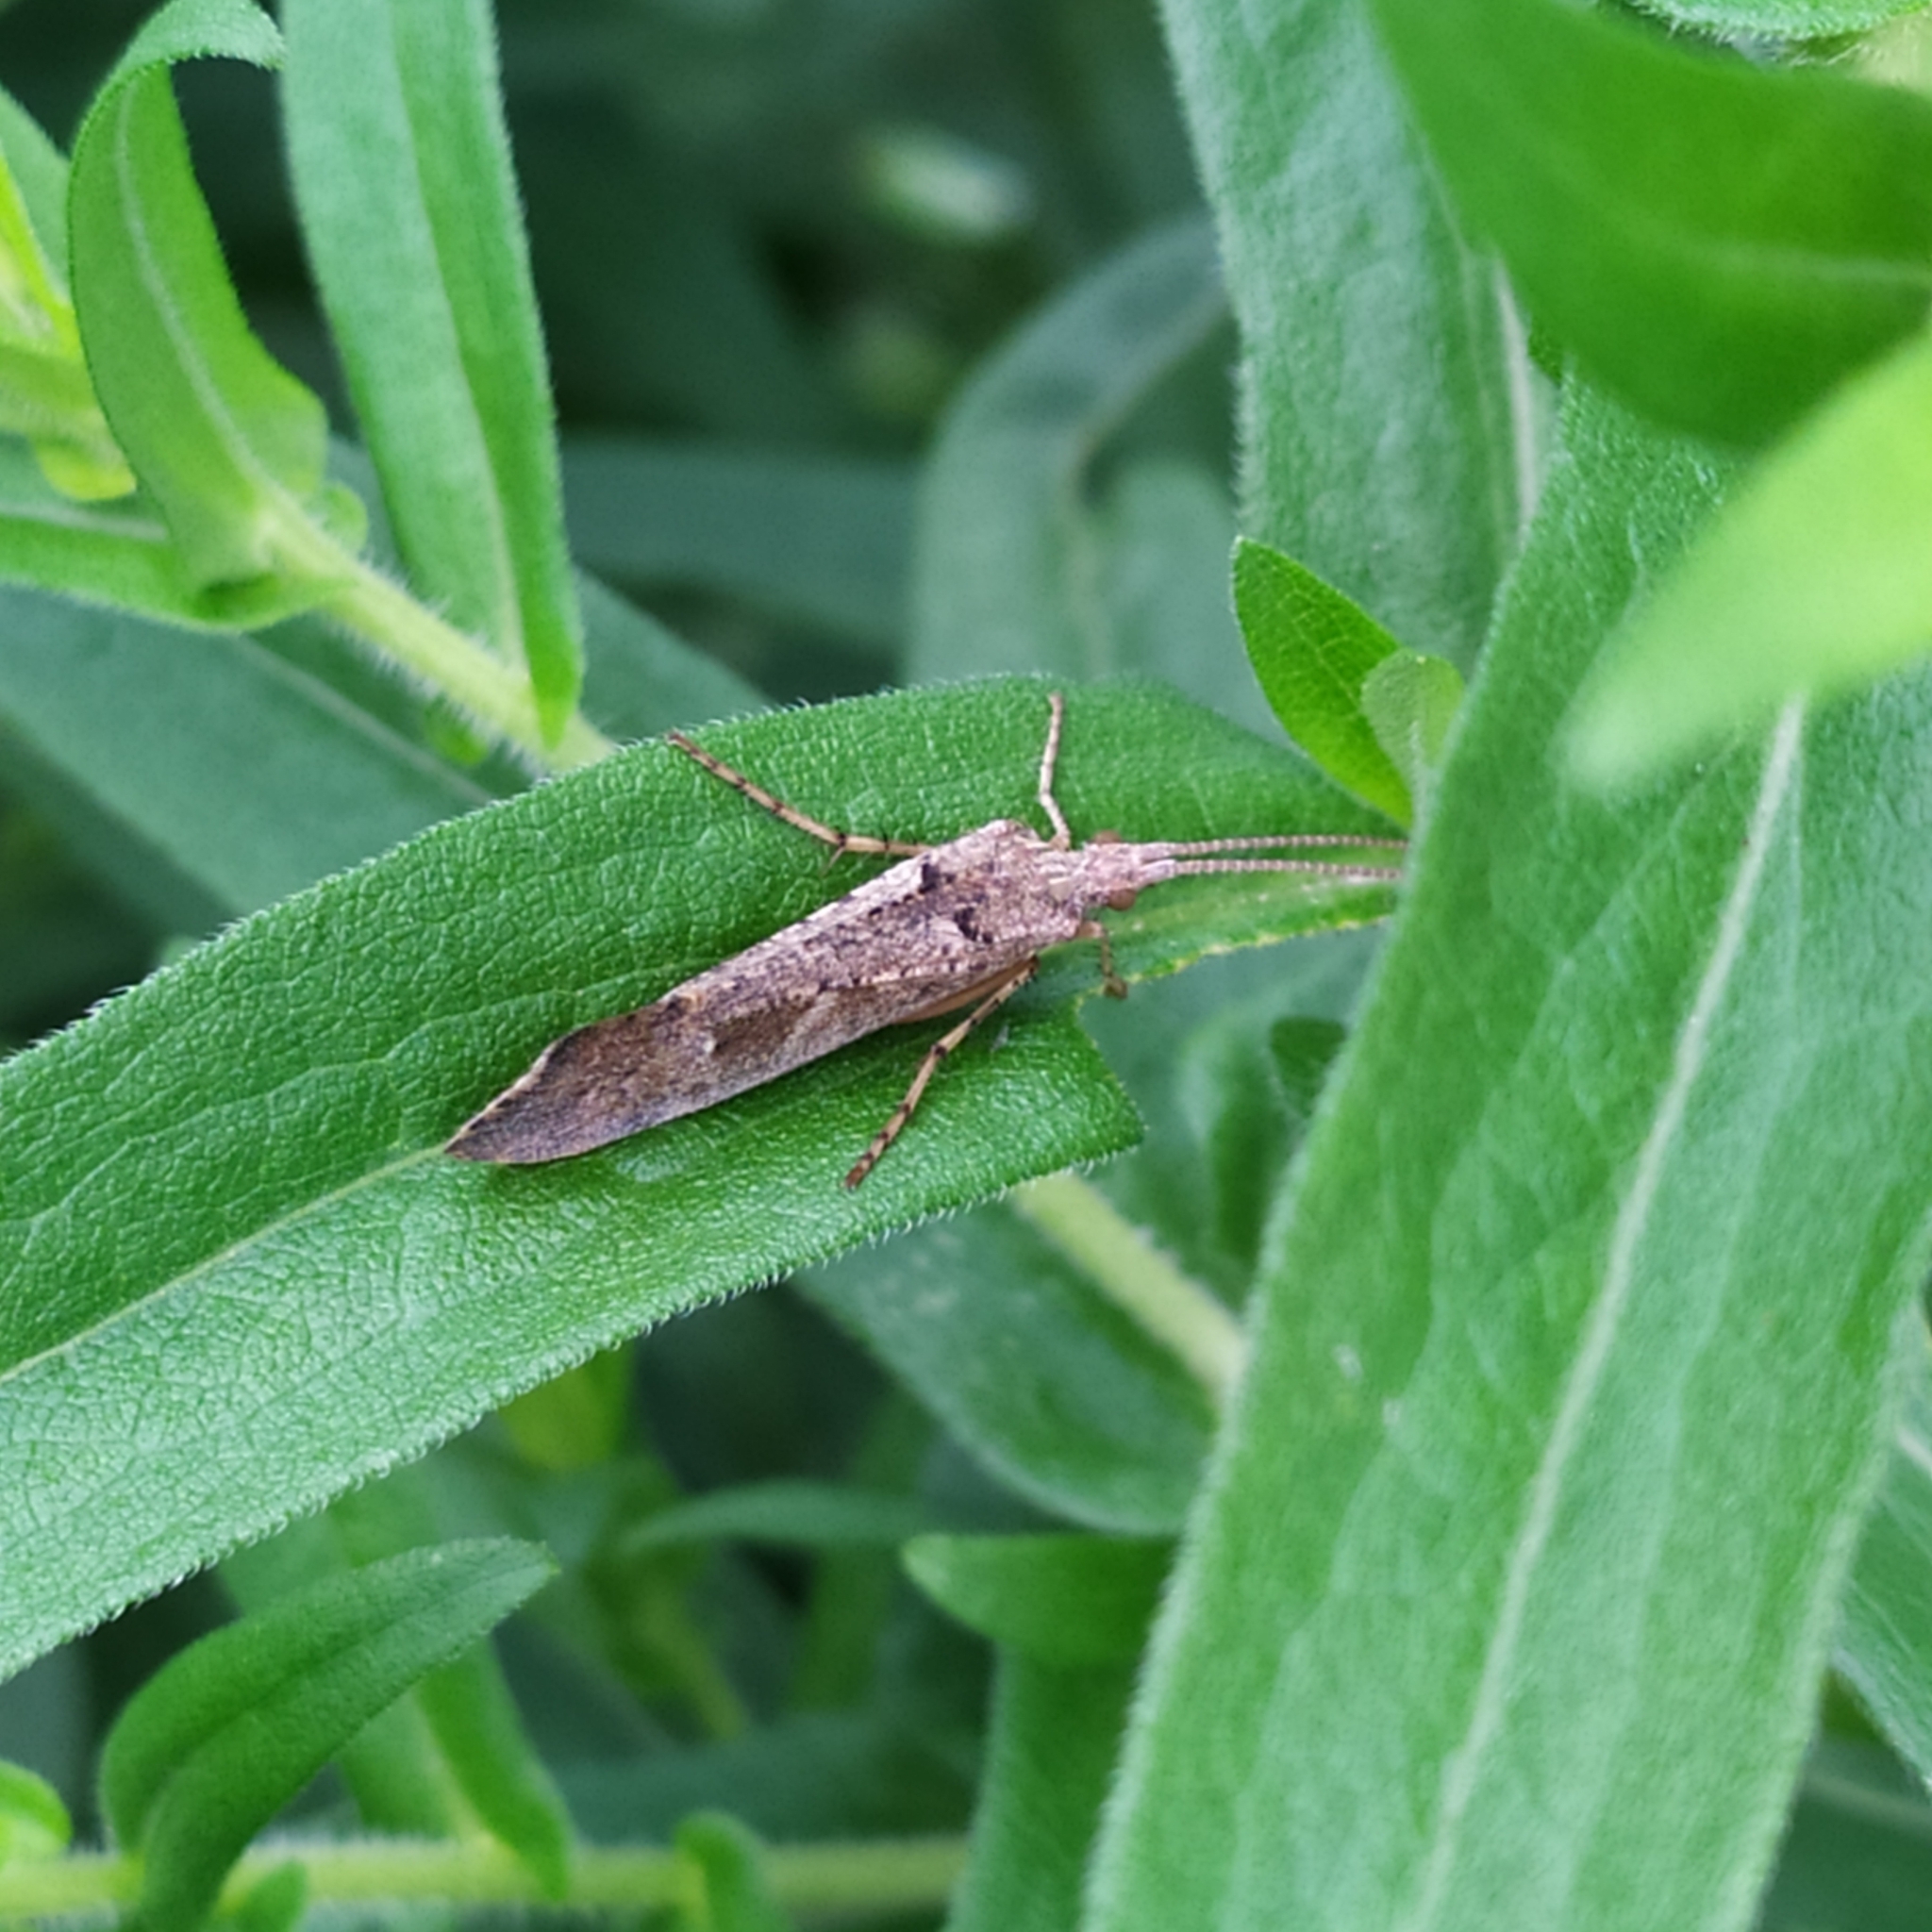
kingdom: Animalia
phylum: Arthropoda
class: Insecta
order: Trichoptera
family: Limnephilidae
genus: Glyphotaelius
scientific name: Glyphotaelius pellucidus
